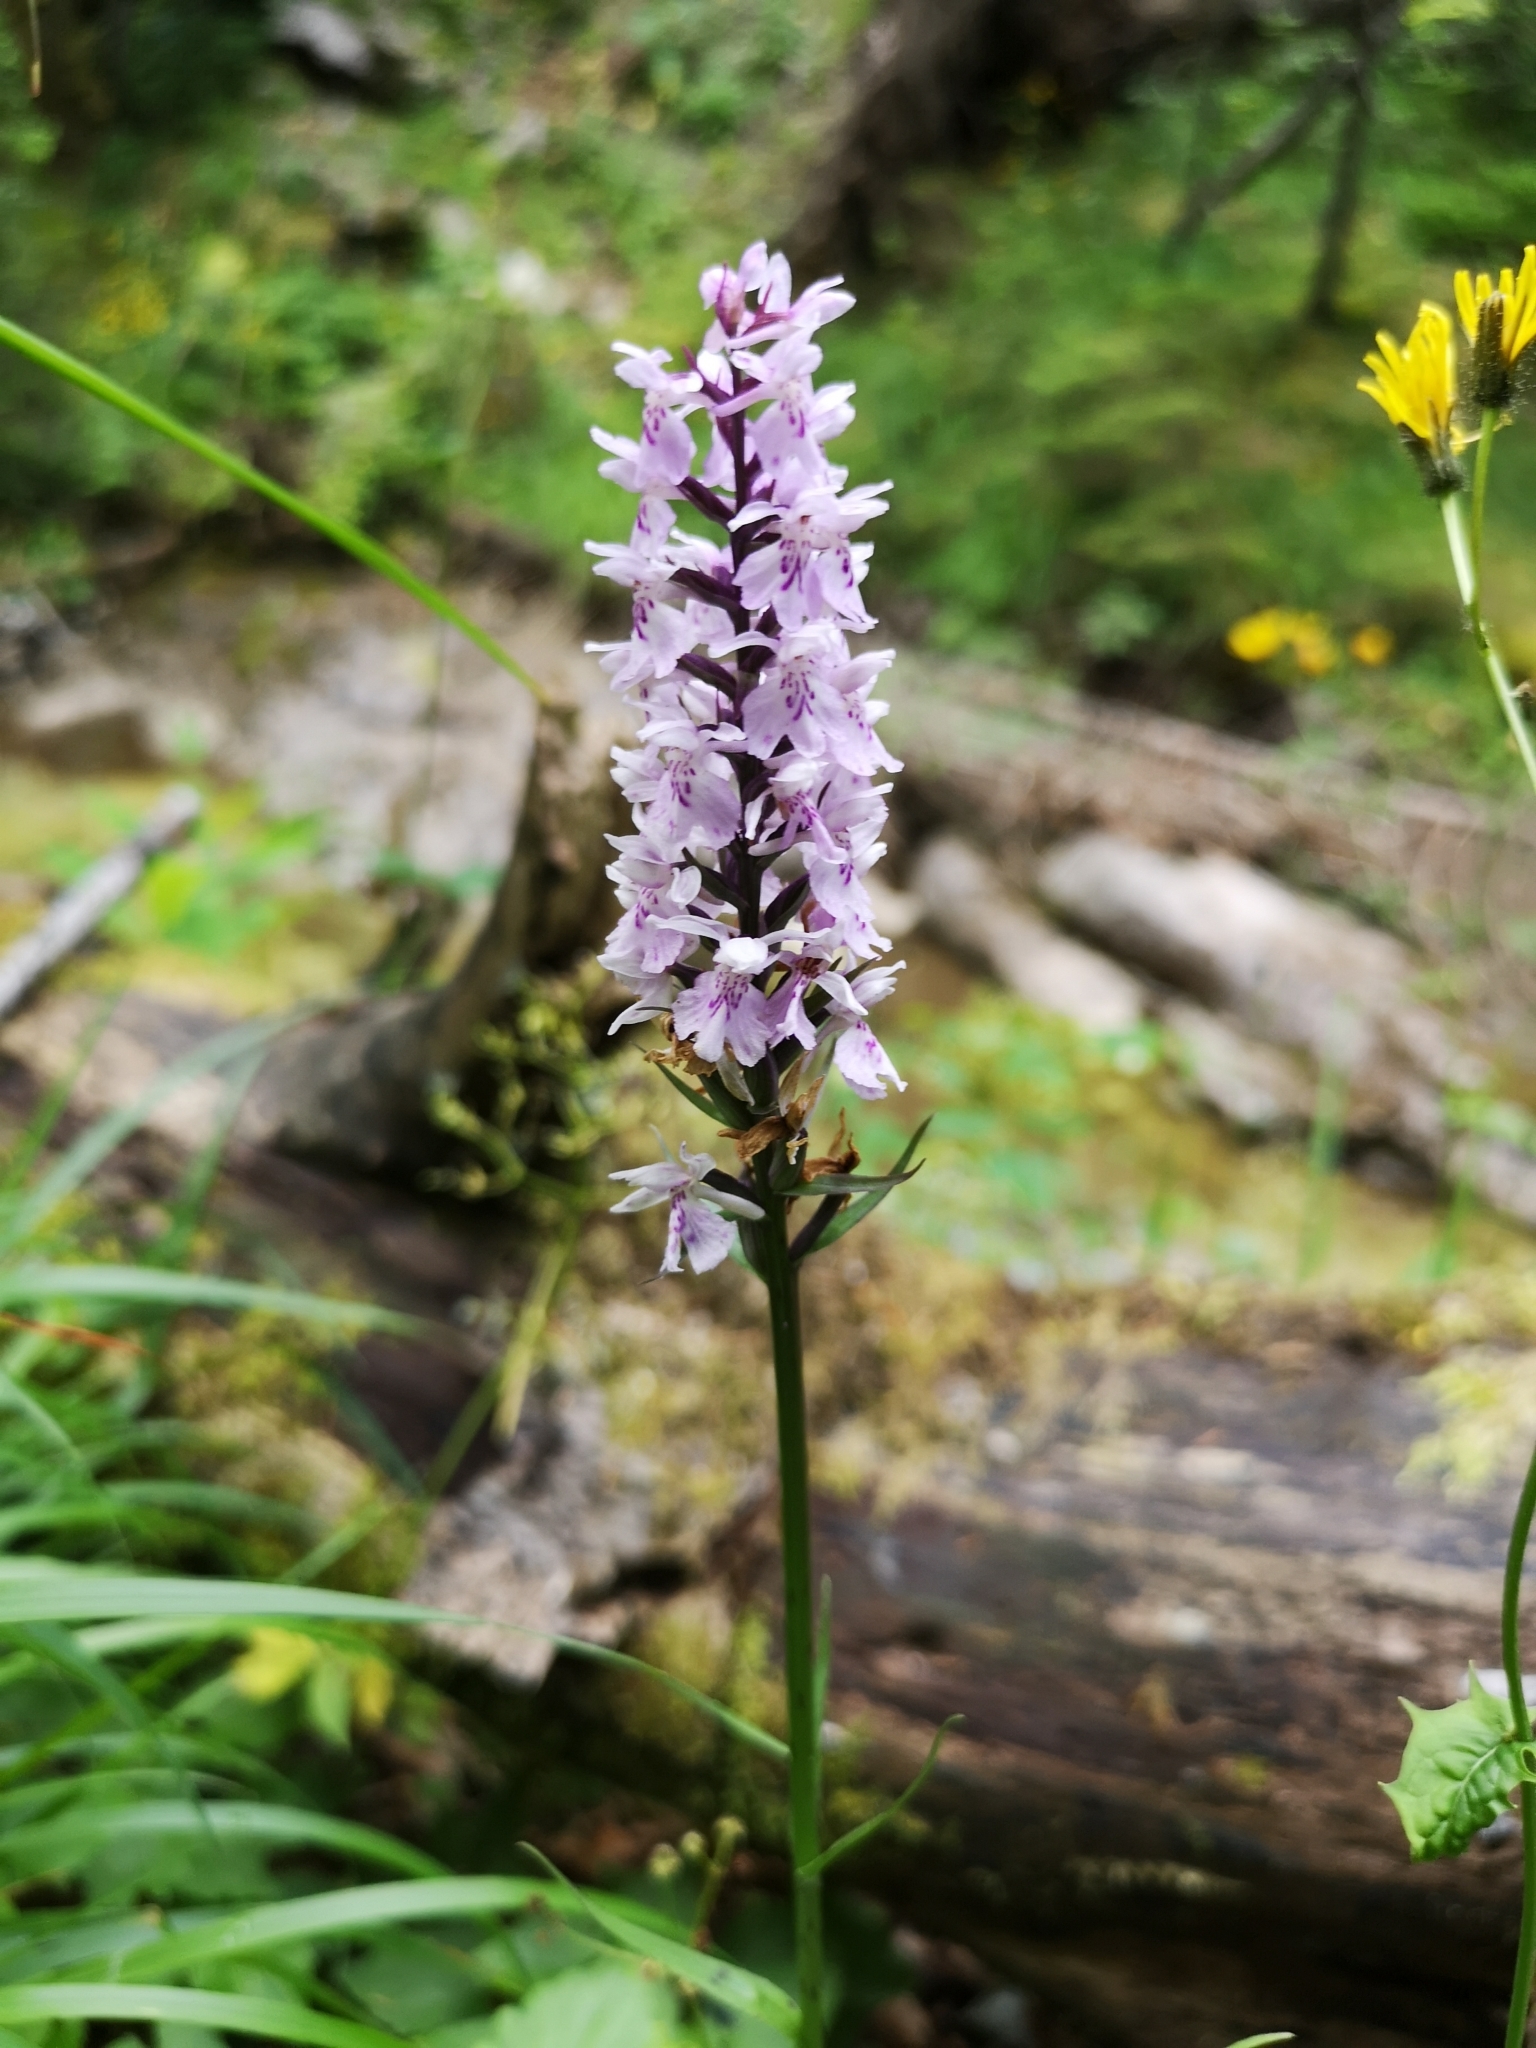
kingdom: Plantae
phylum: Tracheophyta
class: Liliopsida
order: Asparagales
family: Orchidaceae
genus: Dactylorhiza
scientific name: Dactylorhiza maculata
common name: Heath spotted-orchid
